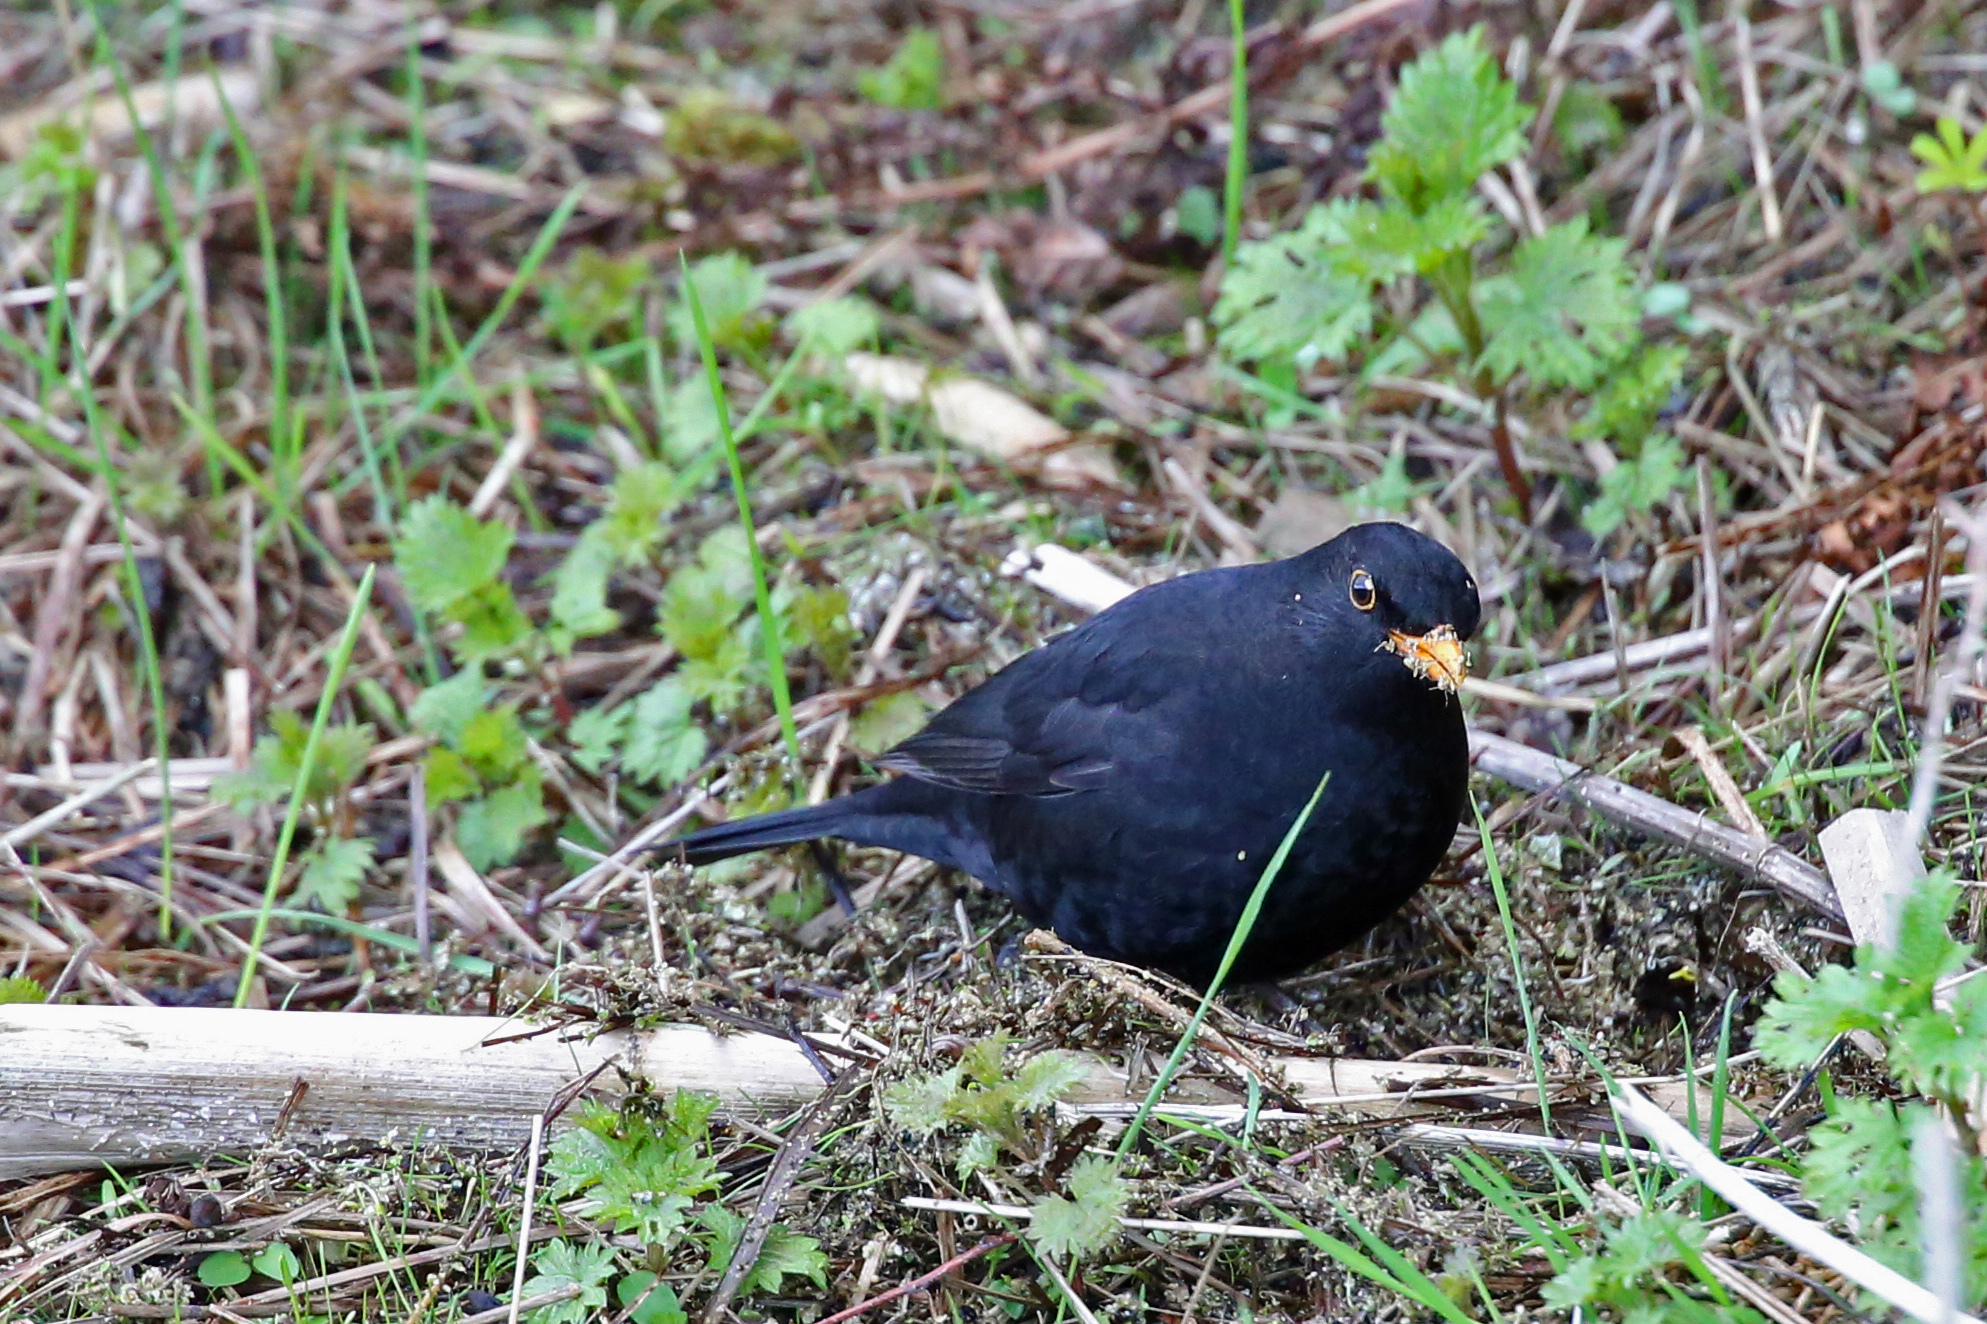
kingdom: Animalia
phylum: Chordata
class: Aves
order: Passeriformes
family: Turdidae
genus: Turdus
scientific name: Turdus merula
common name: Common blackbird
